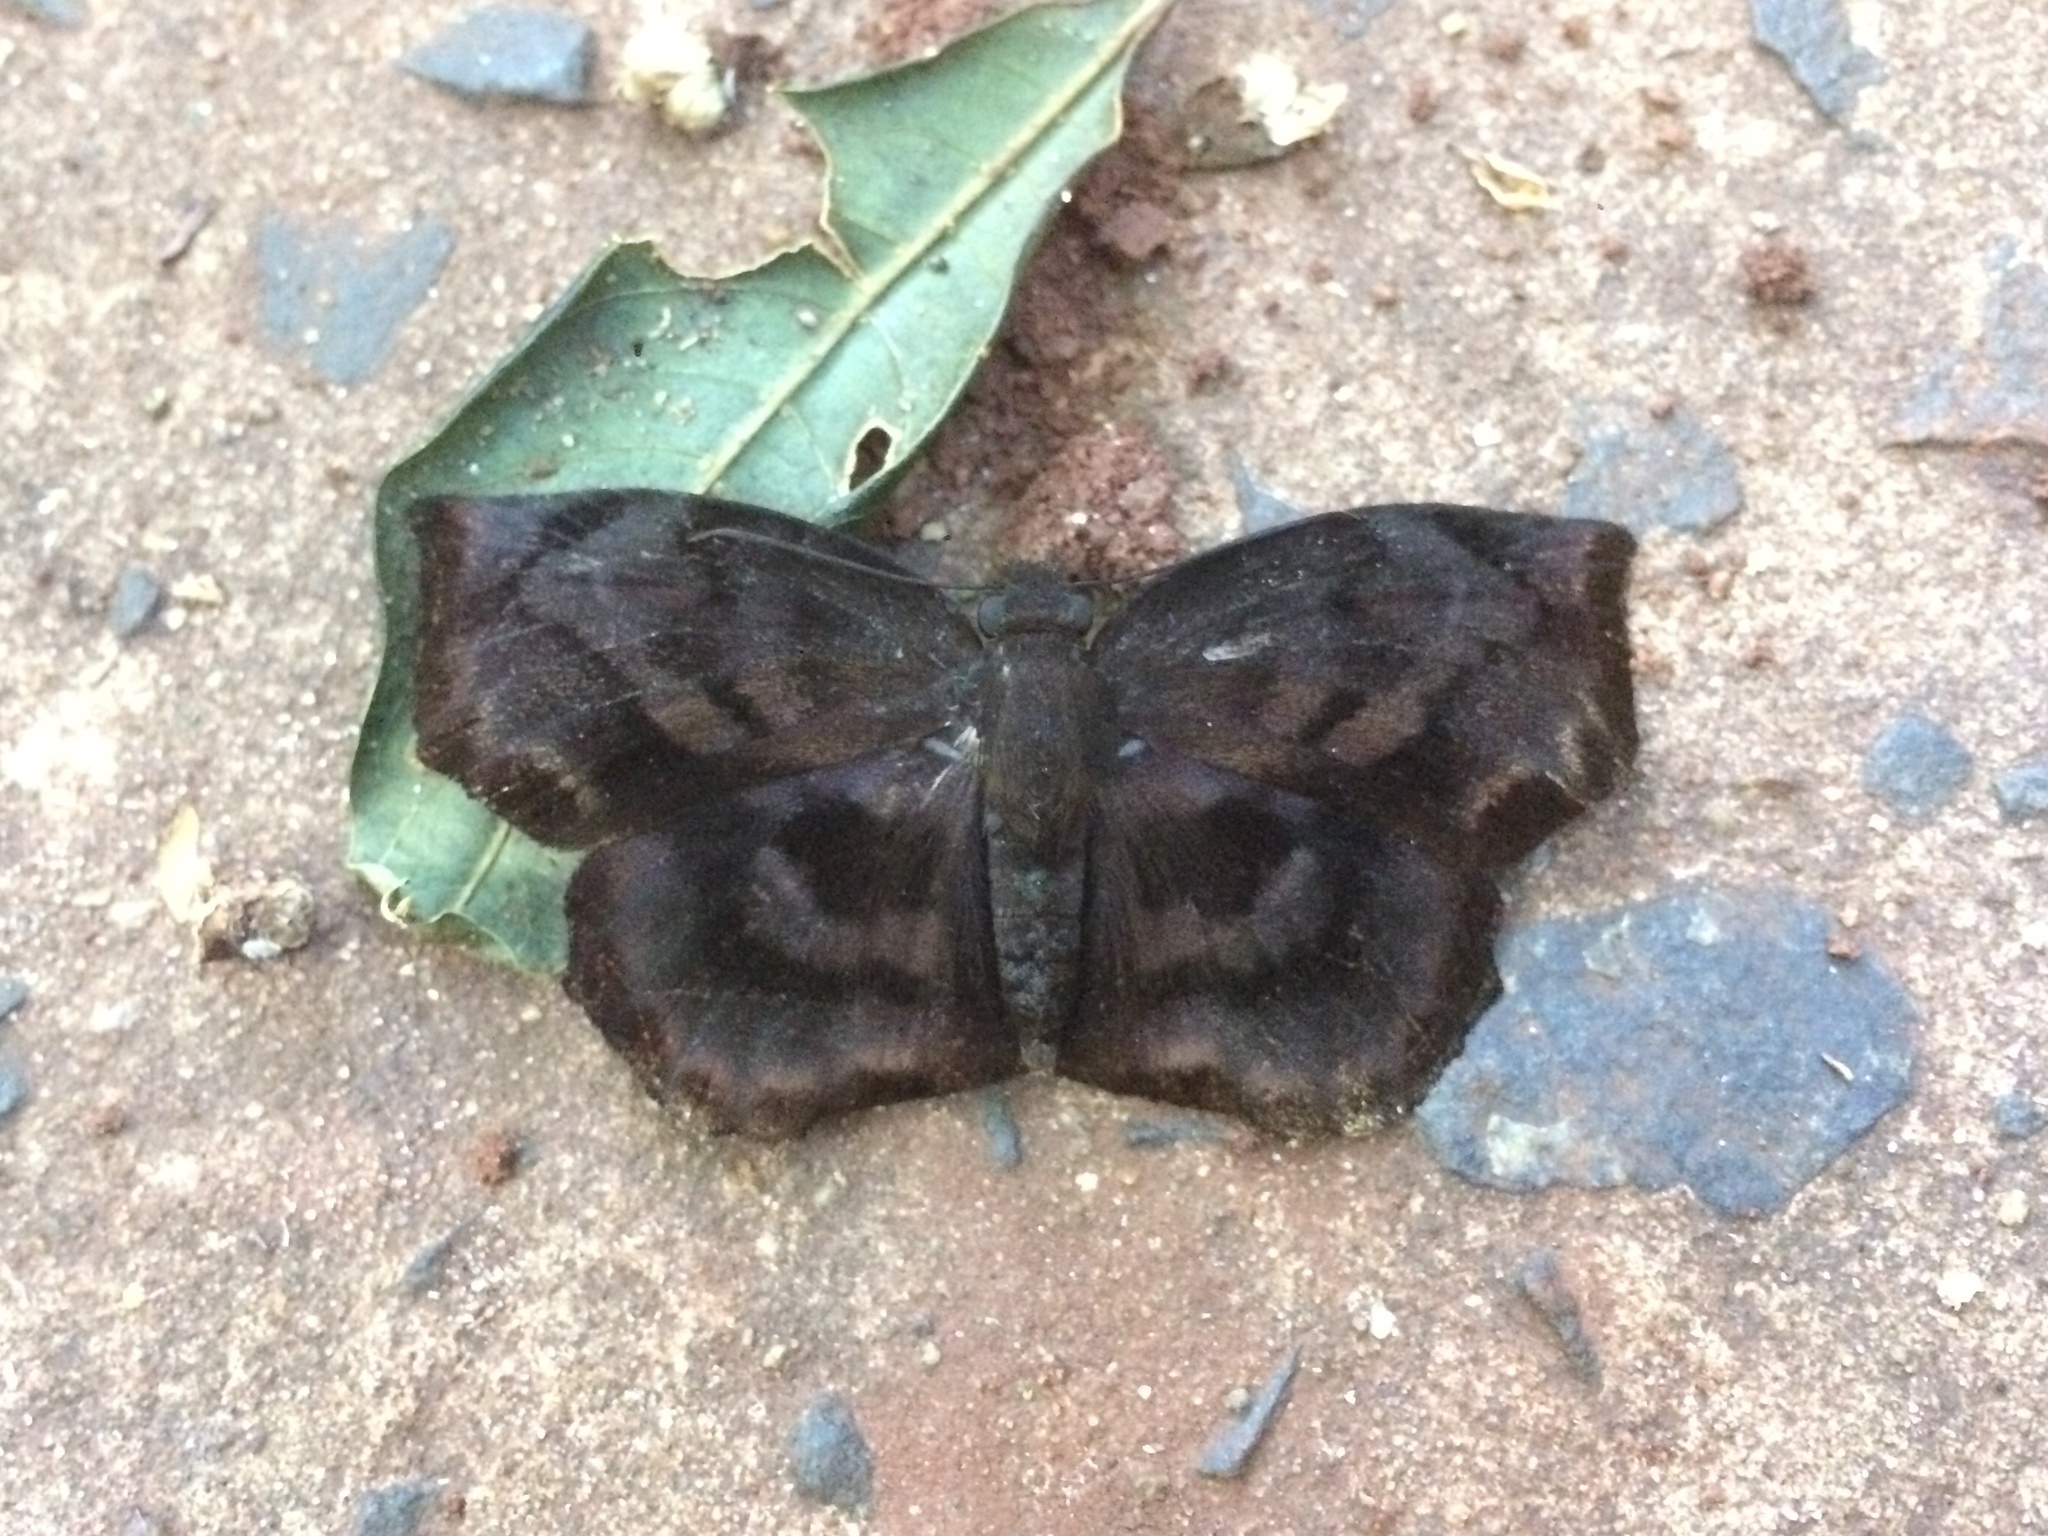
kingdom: Animalia
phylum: Arthropoda
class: Insecta
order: Lepidoptera
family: Hesperiidae
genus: Achlyodes
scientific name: Achlyodes busirus
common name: Giant sicklewing
